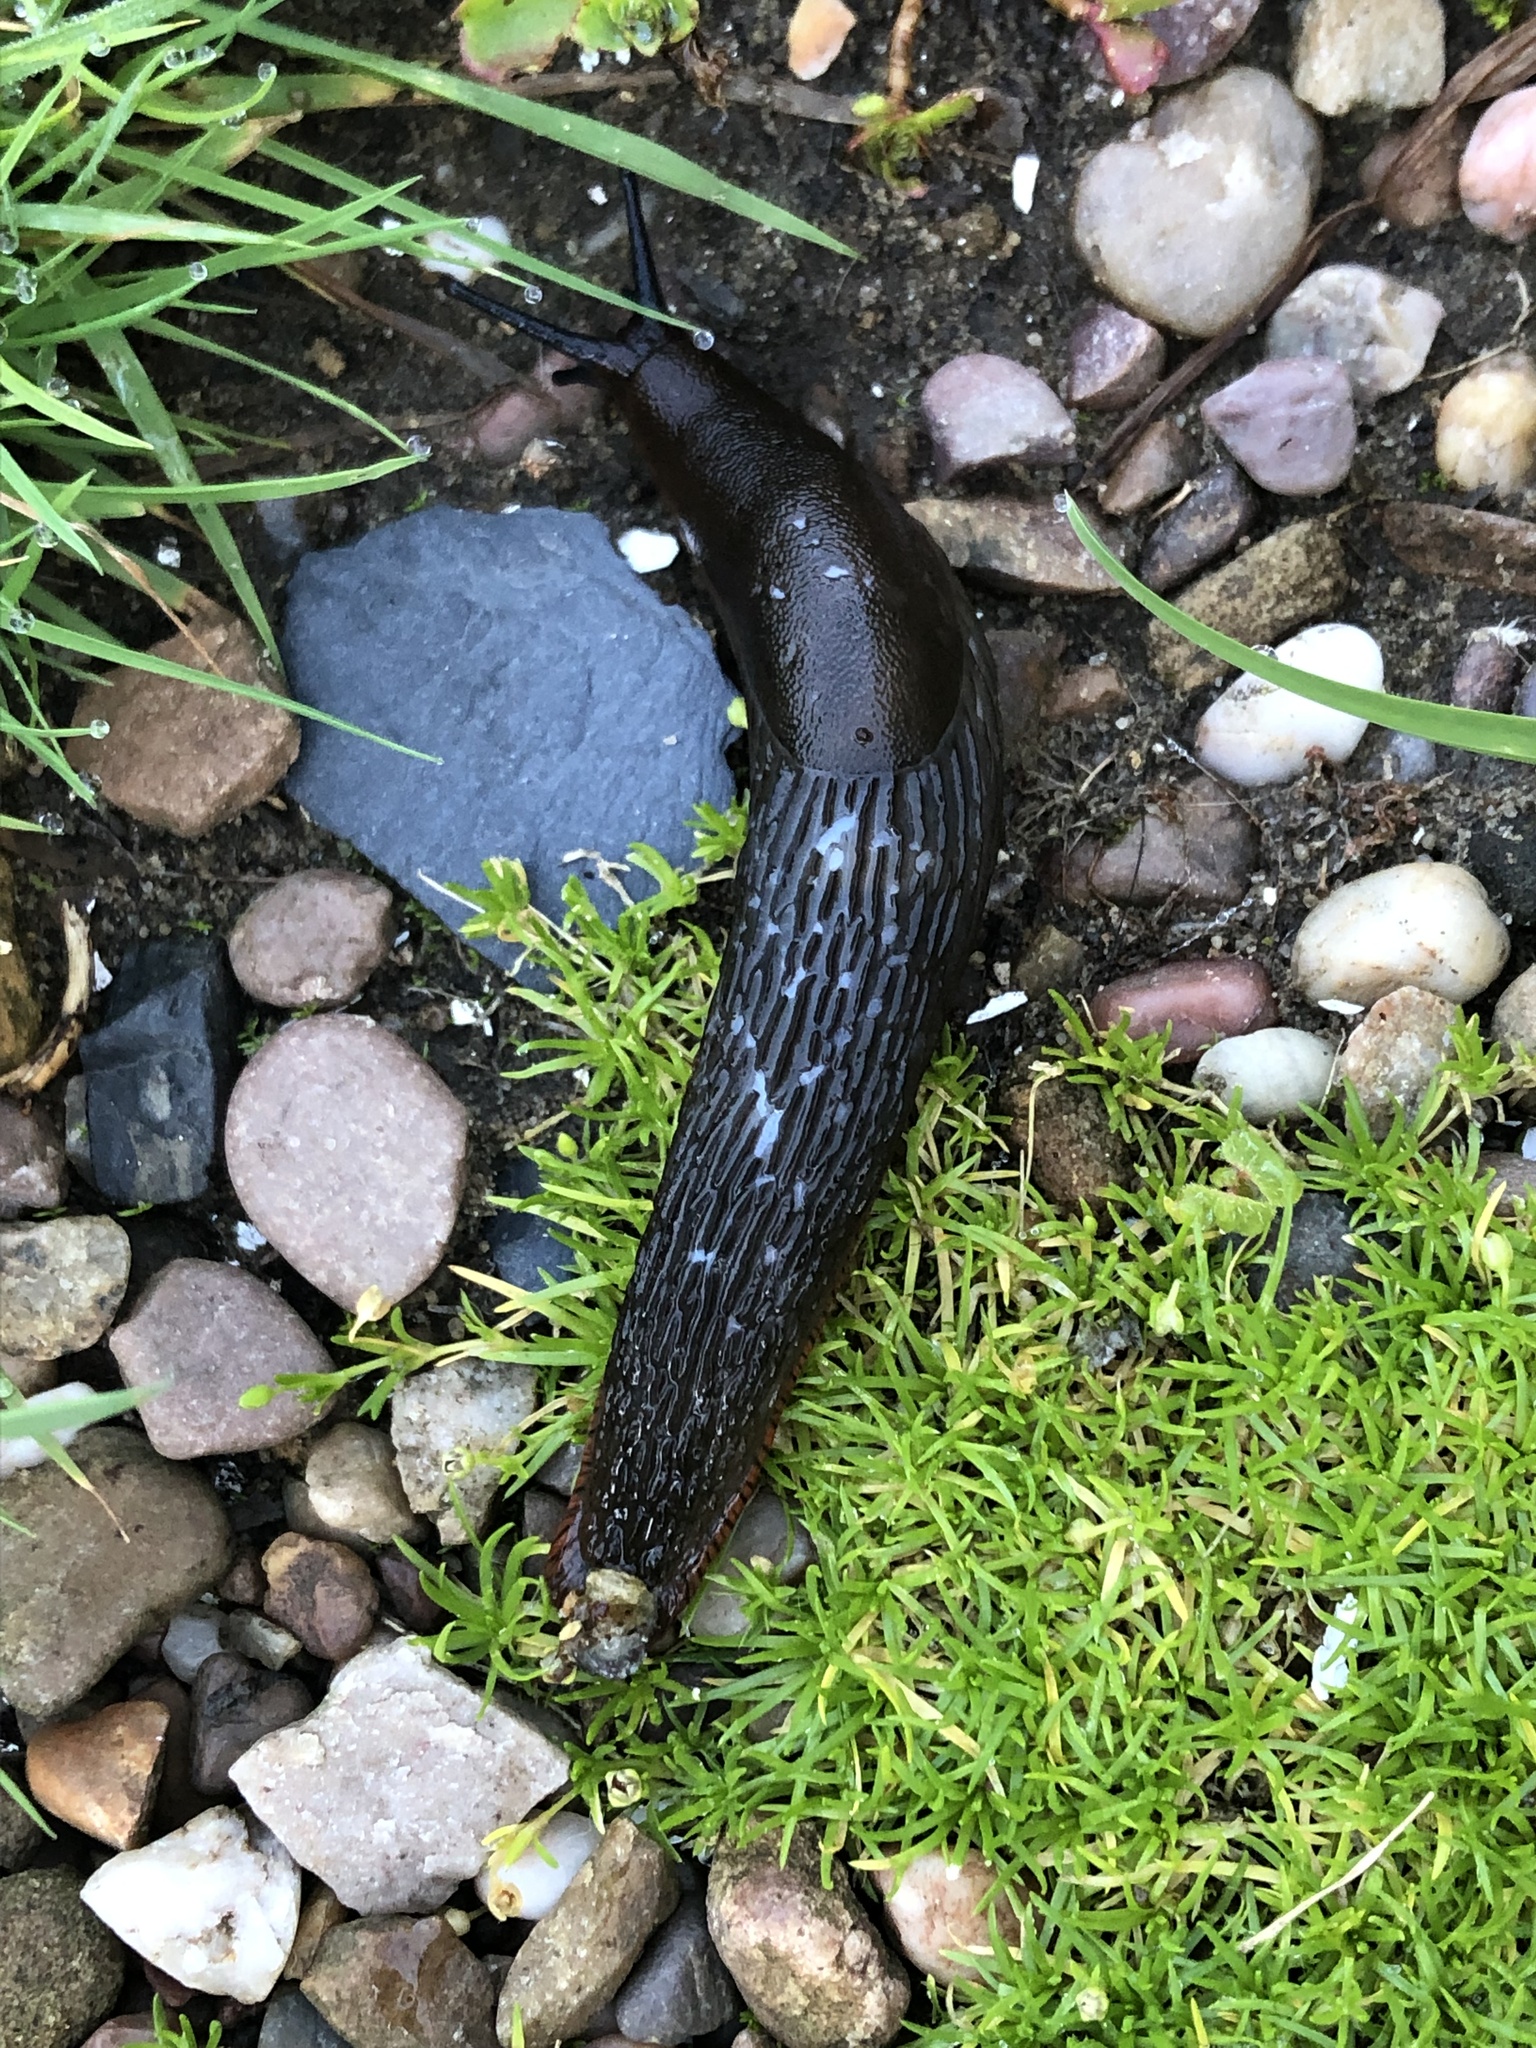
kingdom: Animalia
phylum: Mollusca
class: Gastropoda
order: Stylommatophora
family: Arionidae
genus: Arion
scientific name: Arion ater
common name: Black arion
